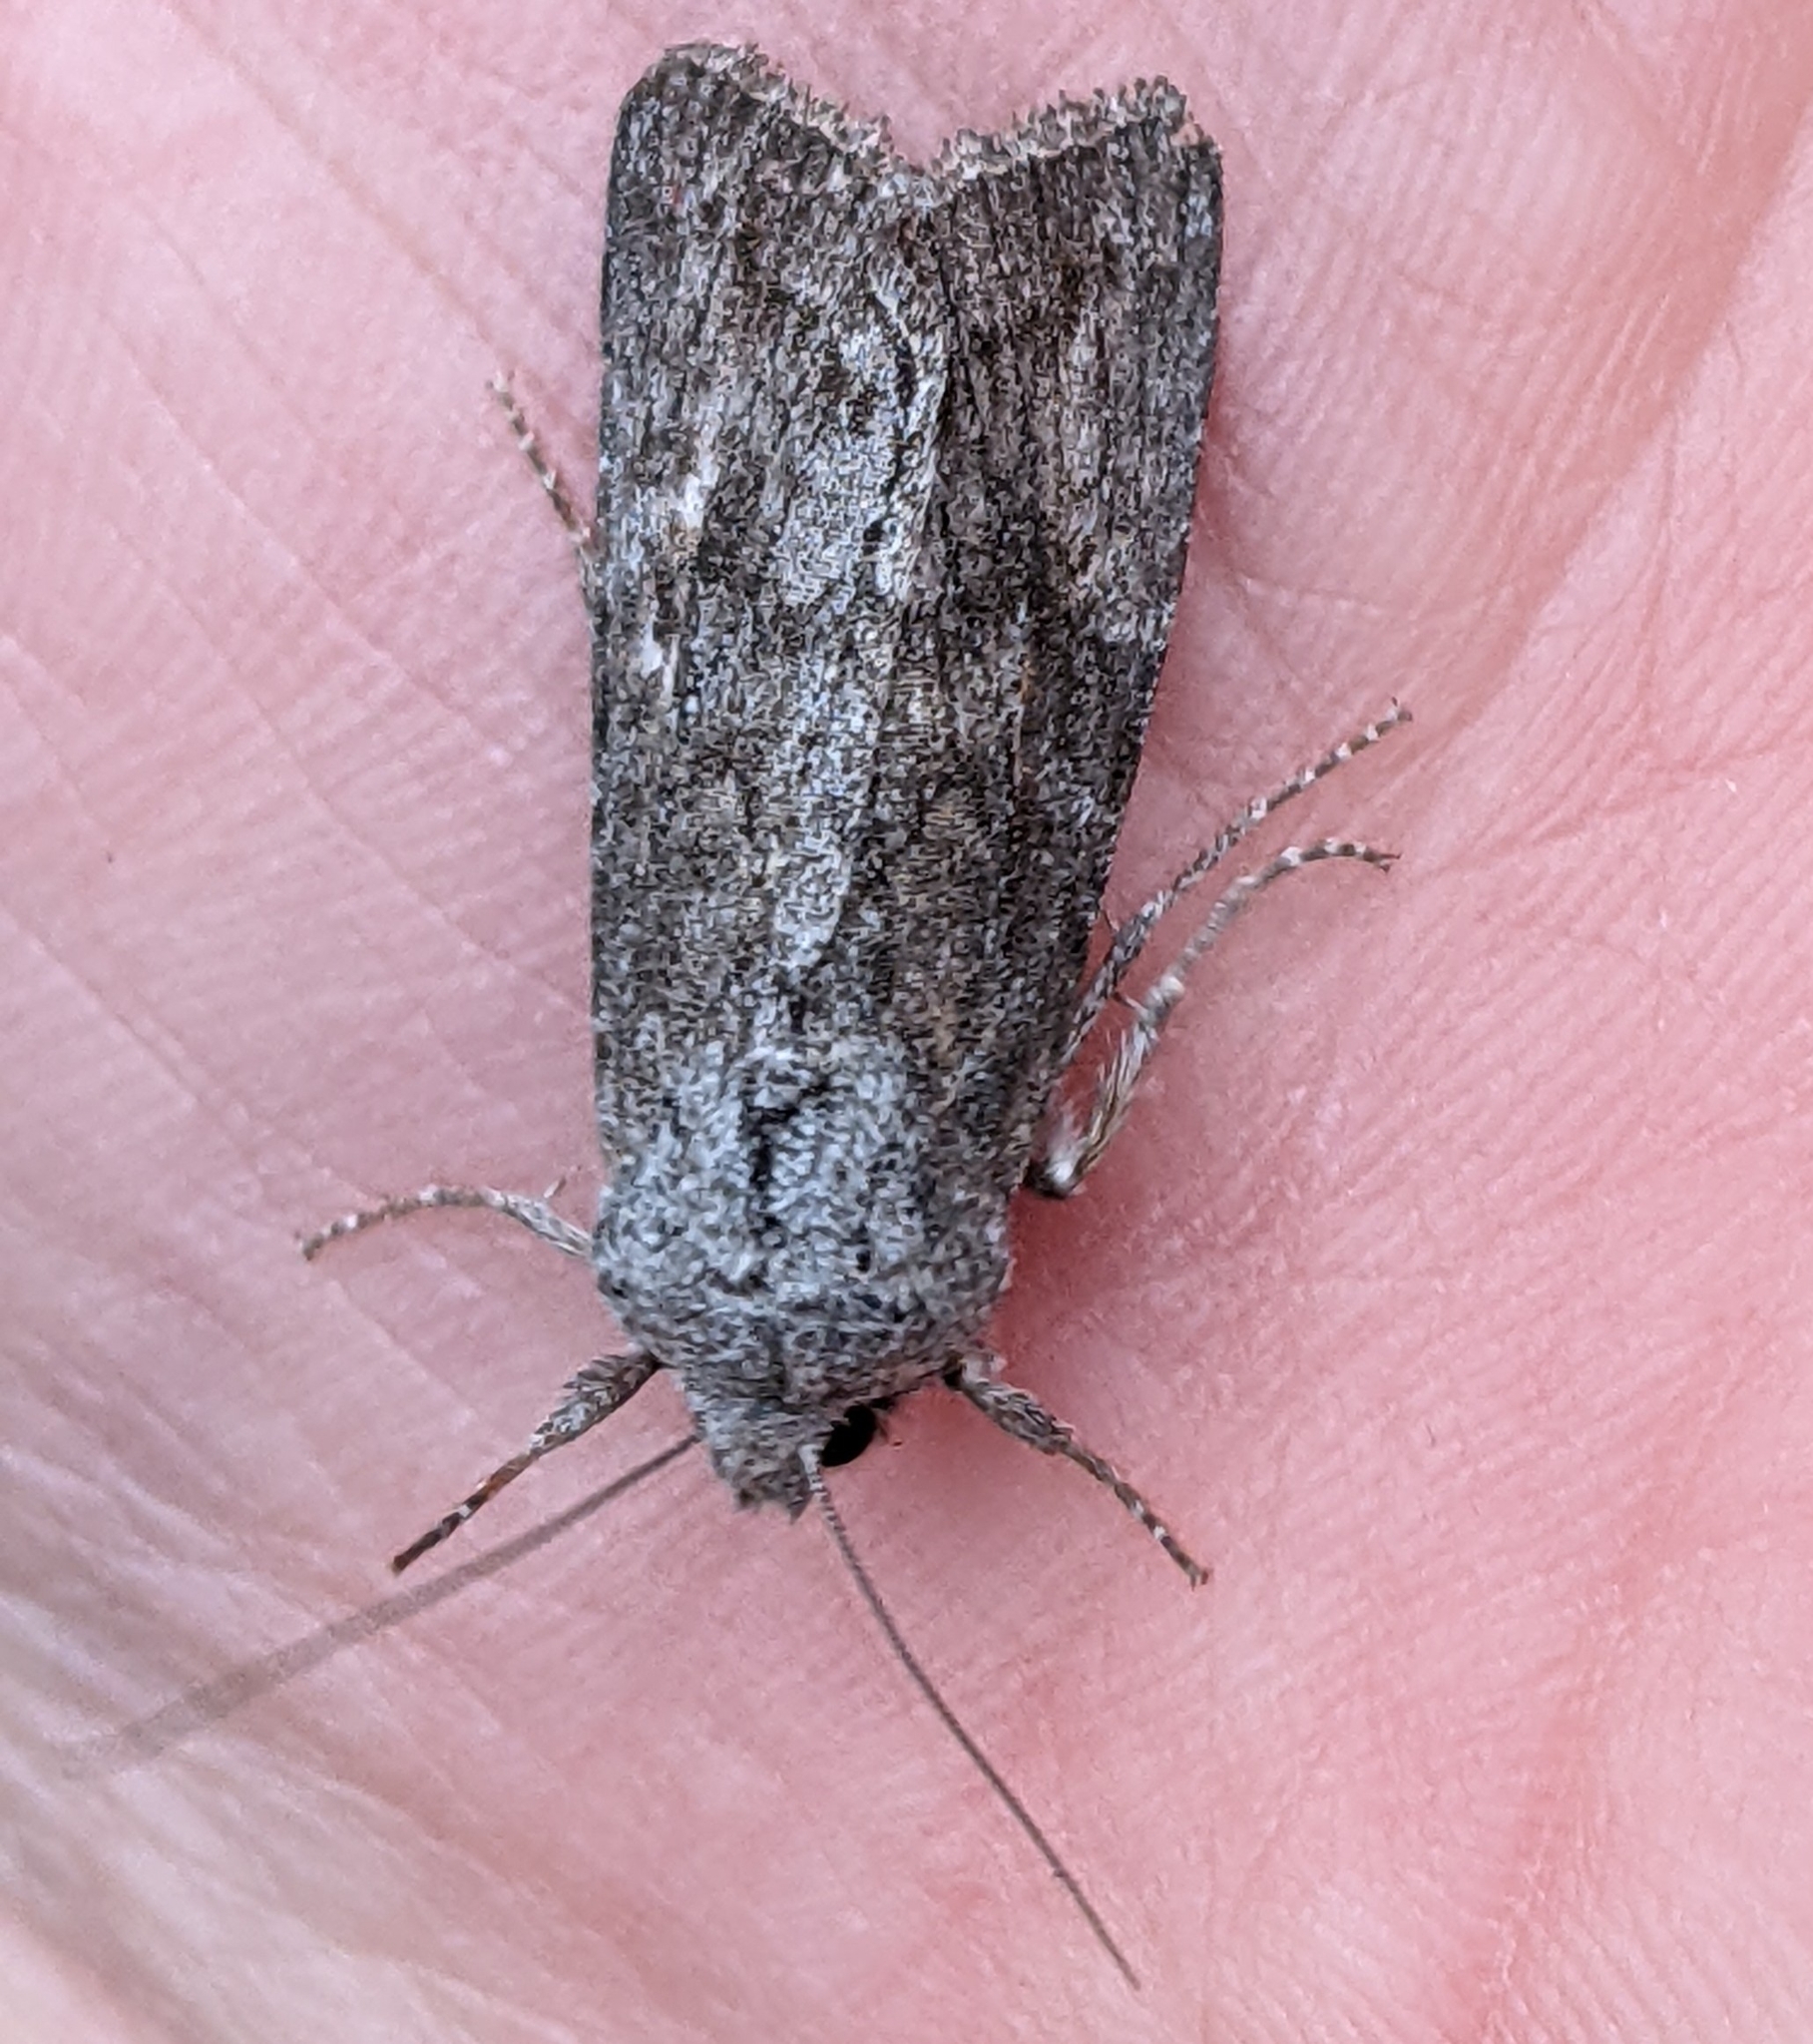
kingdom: Animalia
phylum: Arthropoda
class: Insecta
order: Lepidoptera
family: Noctuidae
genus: Egira
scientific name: Egira curialis
